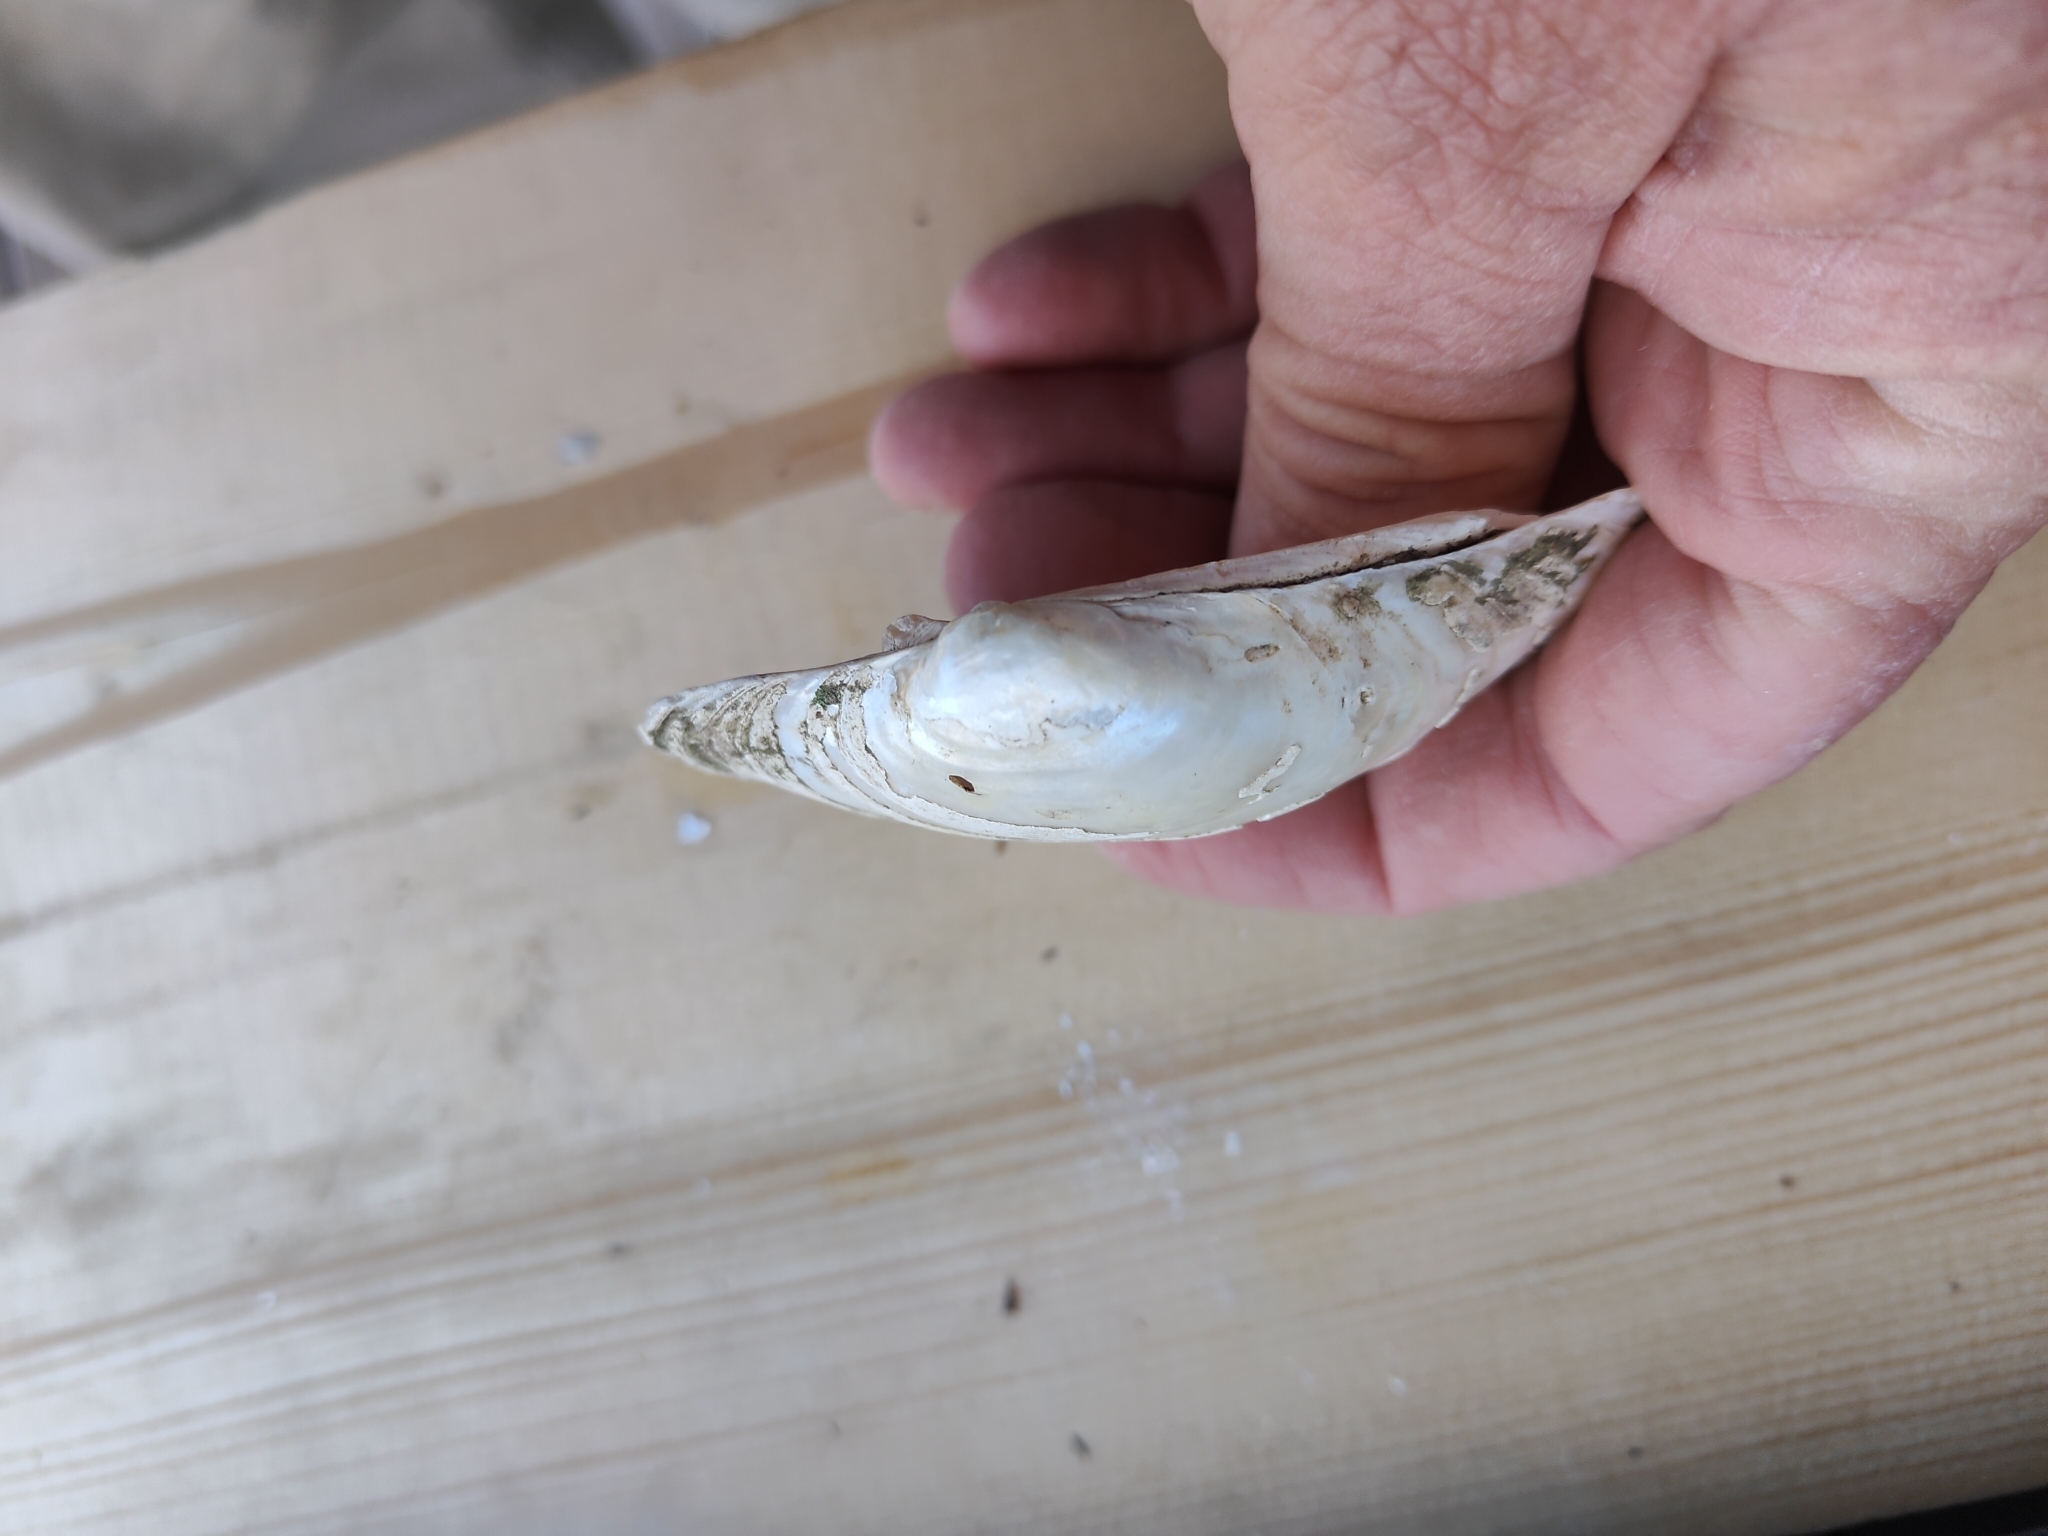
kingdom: Animalia
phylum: Mollusca
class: Bivalvia
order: Unionida
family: Unionidae
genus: Lampsilis
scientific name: Lampsilis cardium
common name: Plain pocketbook
